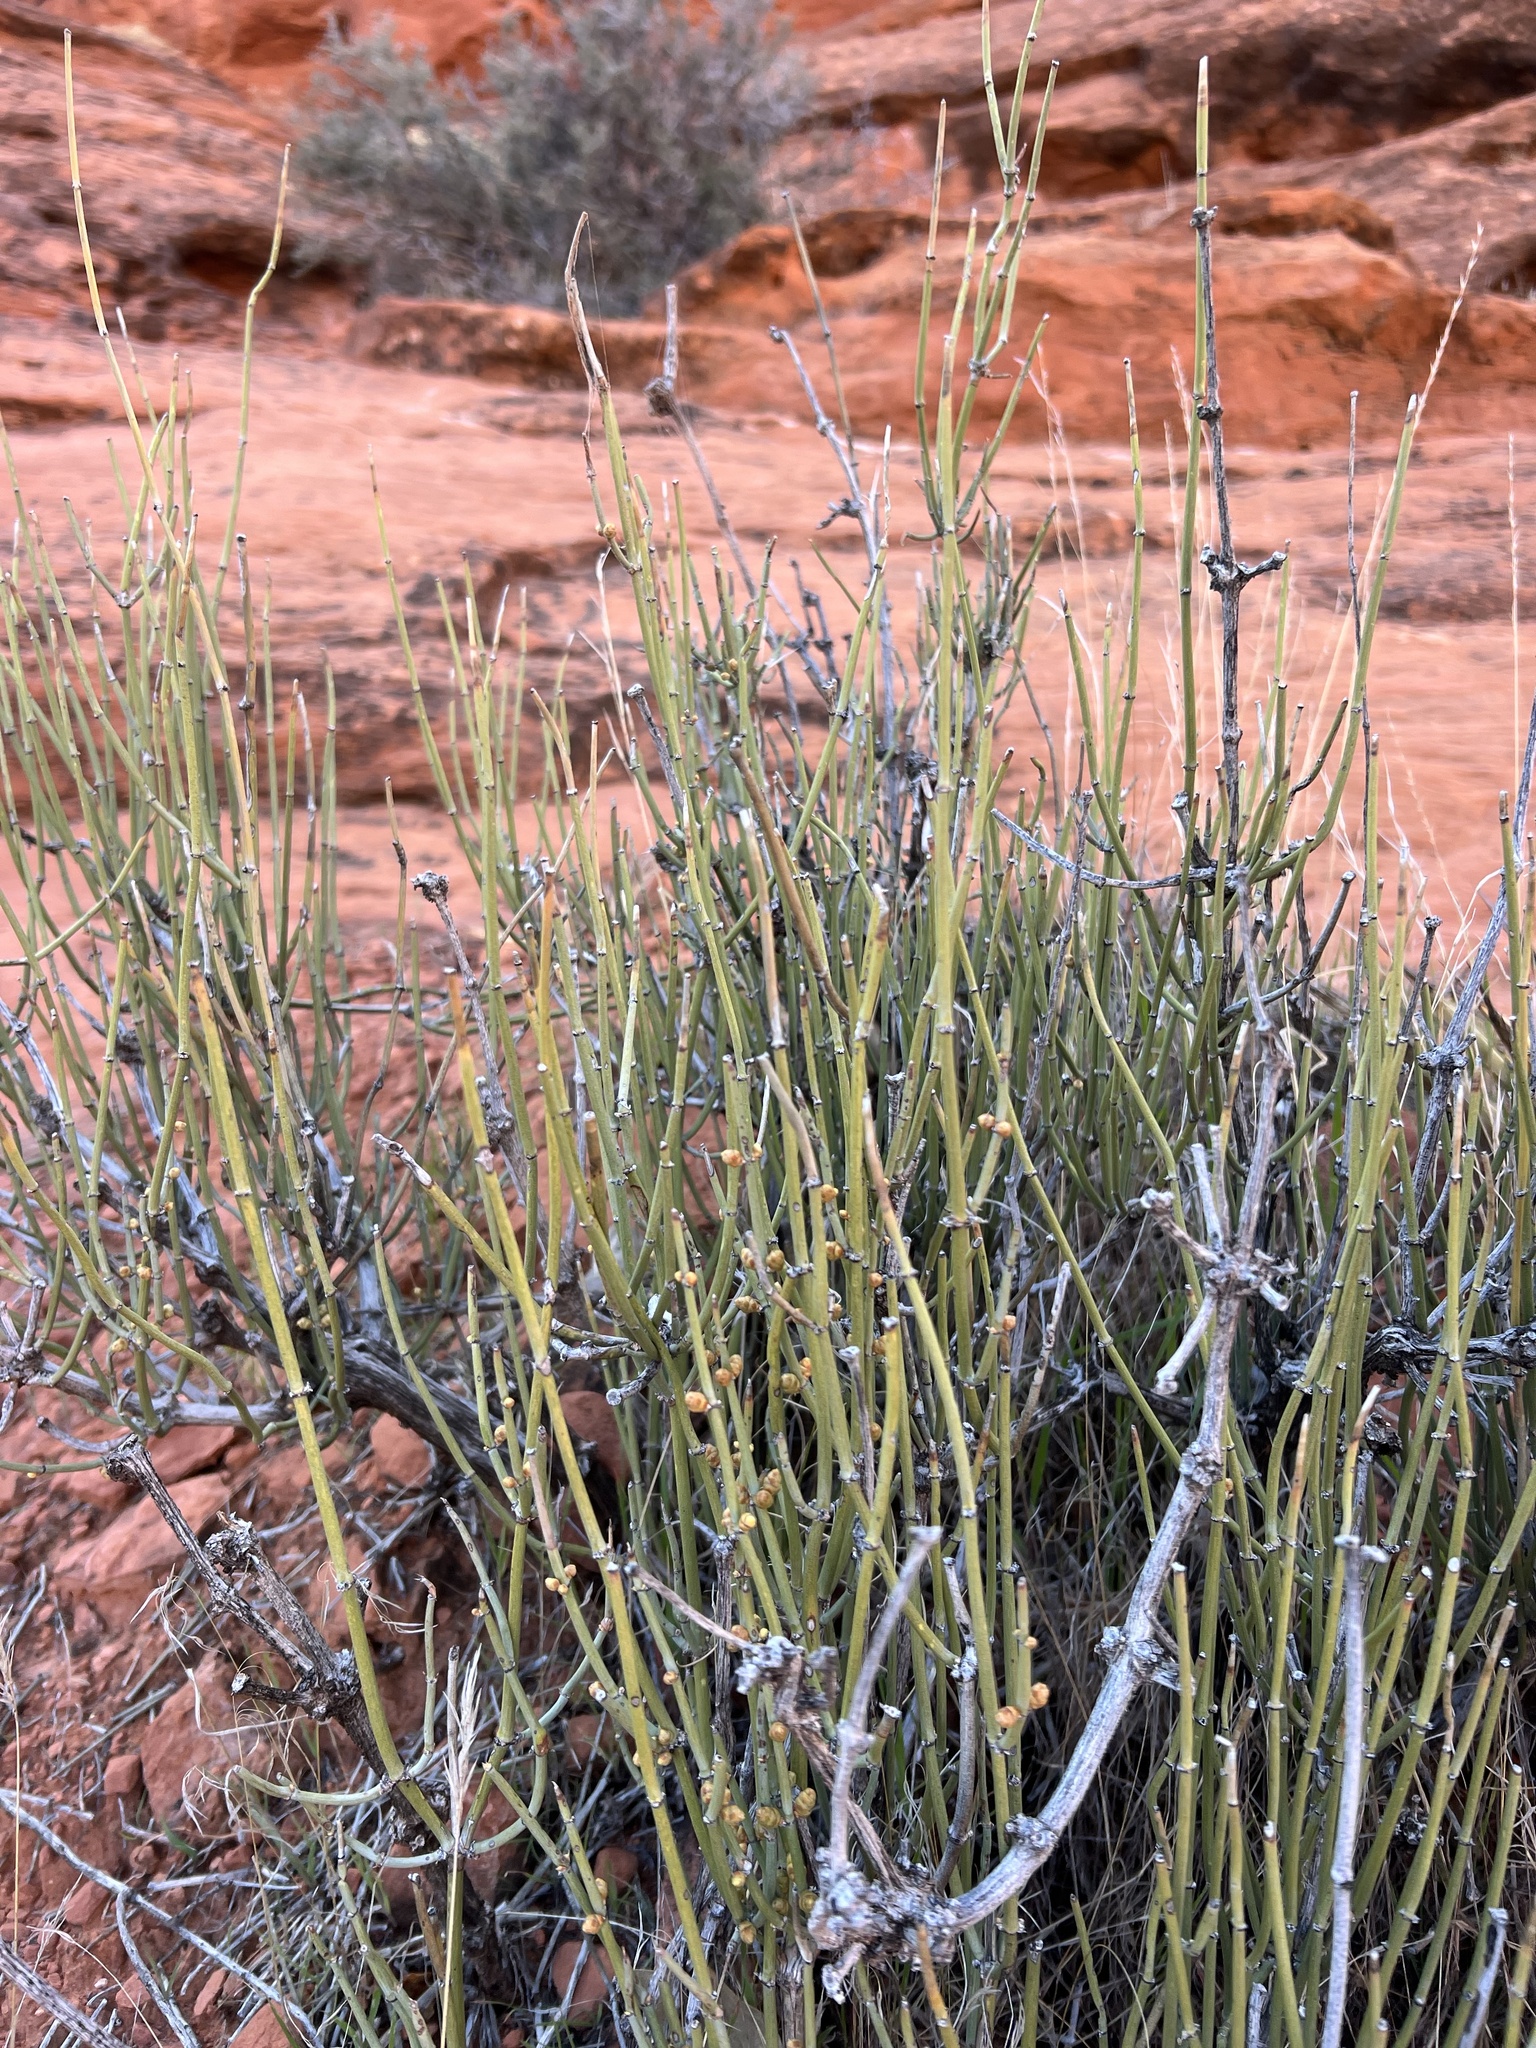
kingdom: Plantae
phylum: Tracheophyta
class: Gnetopsida
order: Ephedrales
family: Ephedraceae
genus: Ephedra
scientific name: Ephedra viridis
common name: Green ephedra
